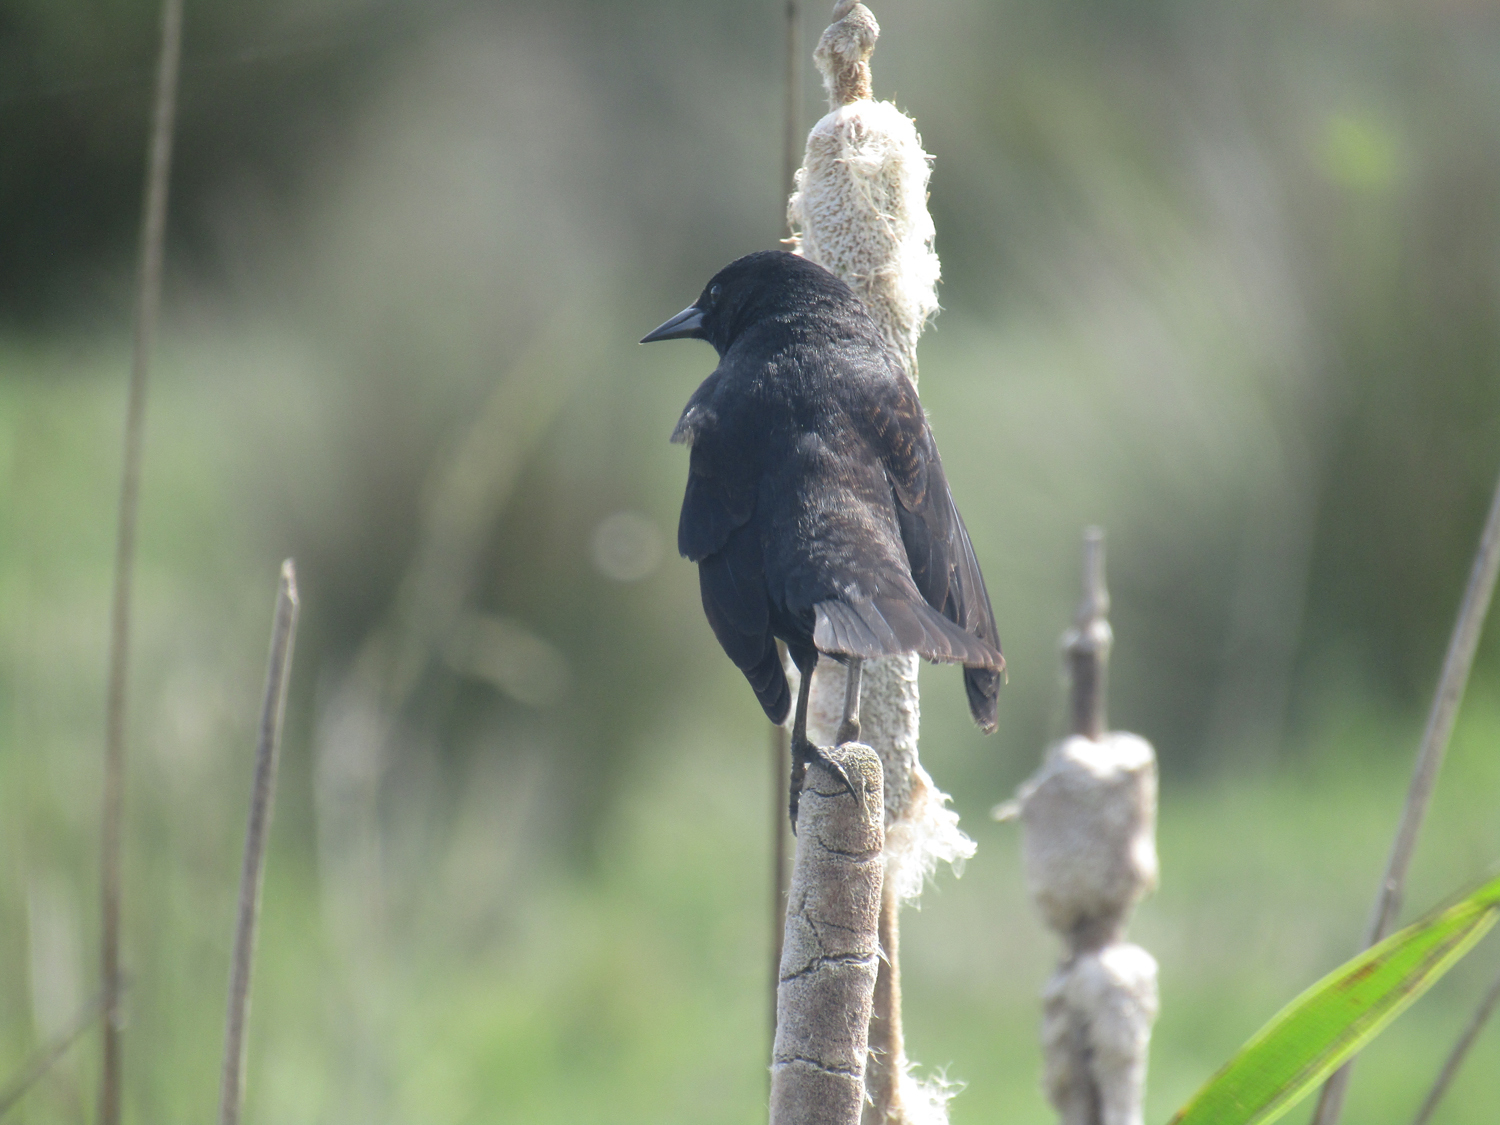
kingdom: Animalia
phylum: Chordata
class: Aves
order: Passeriformes
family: Icteridae
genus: Agelasticus
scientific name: Agelasticus thilius
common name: Yellow-winged blackbird
